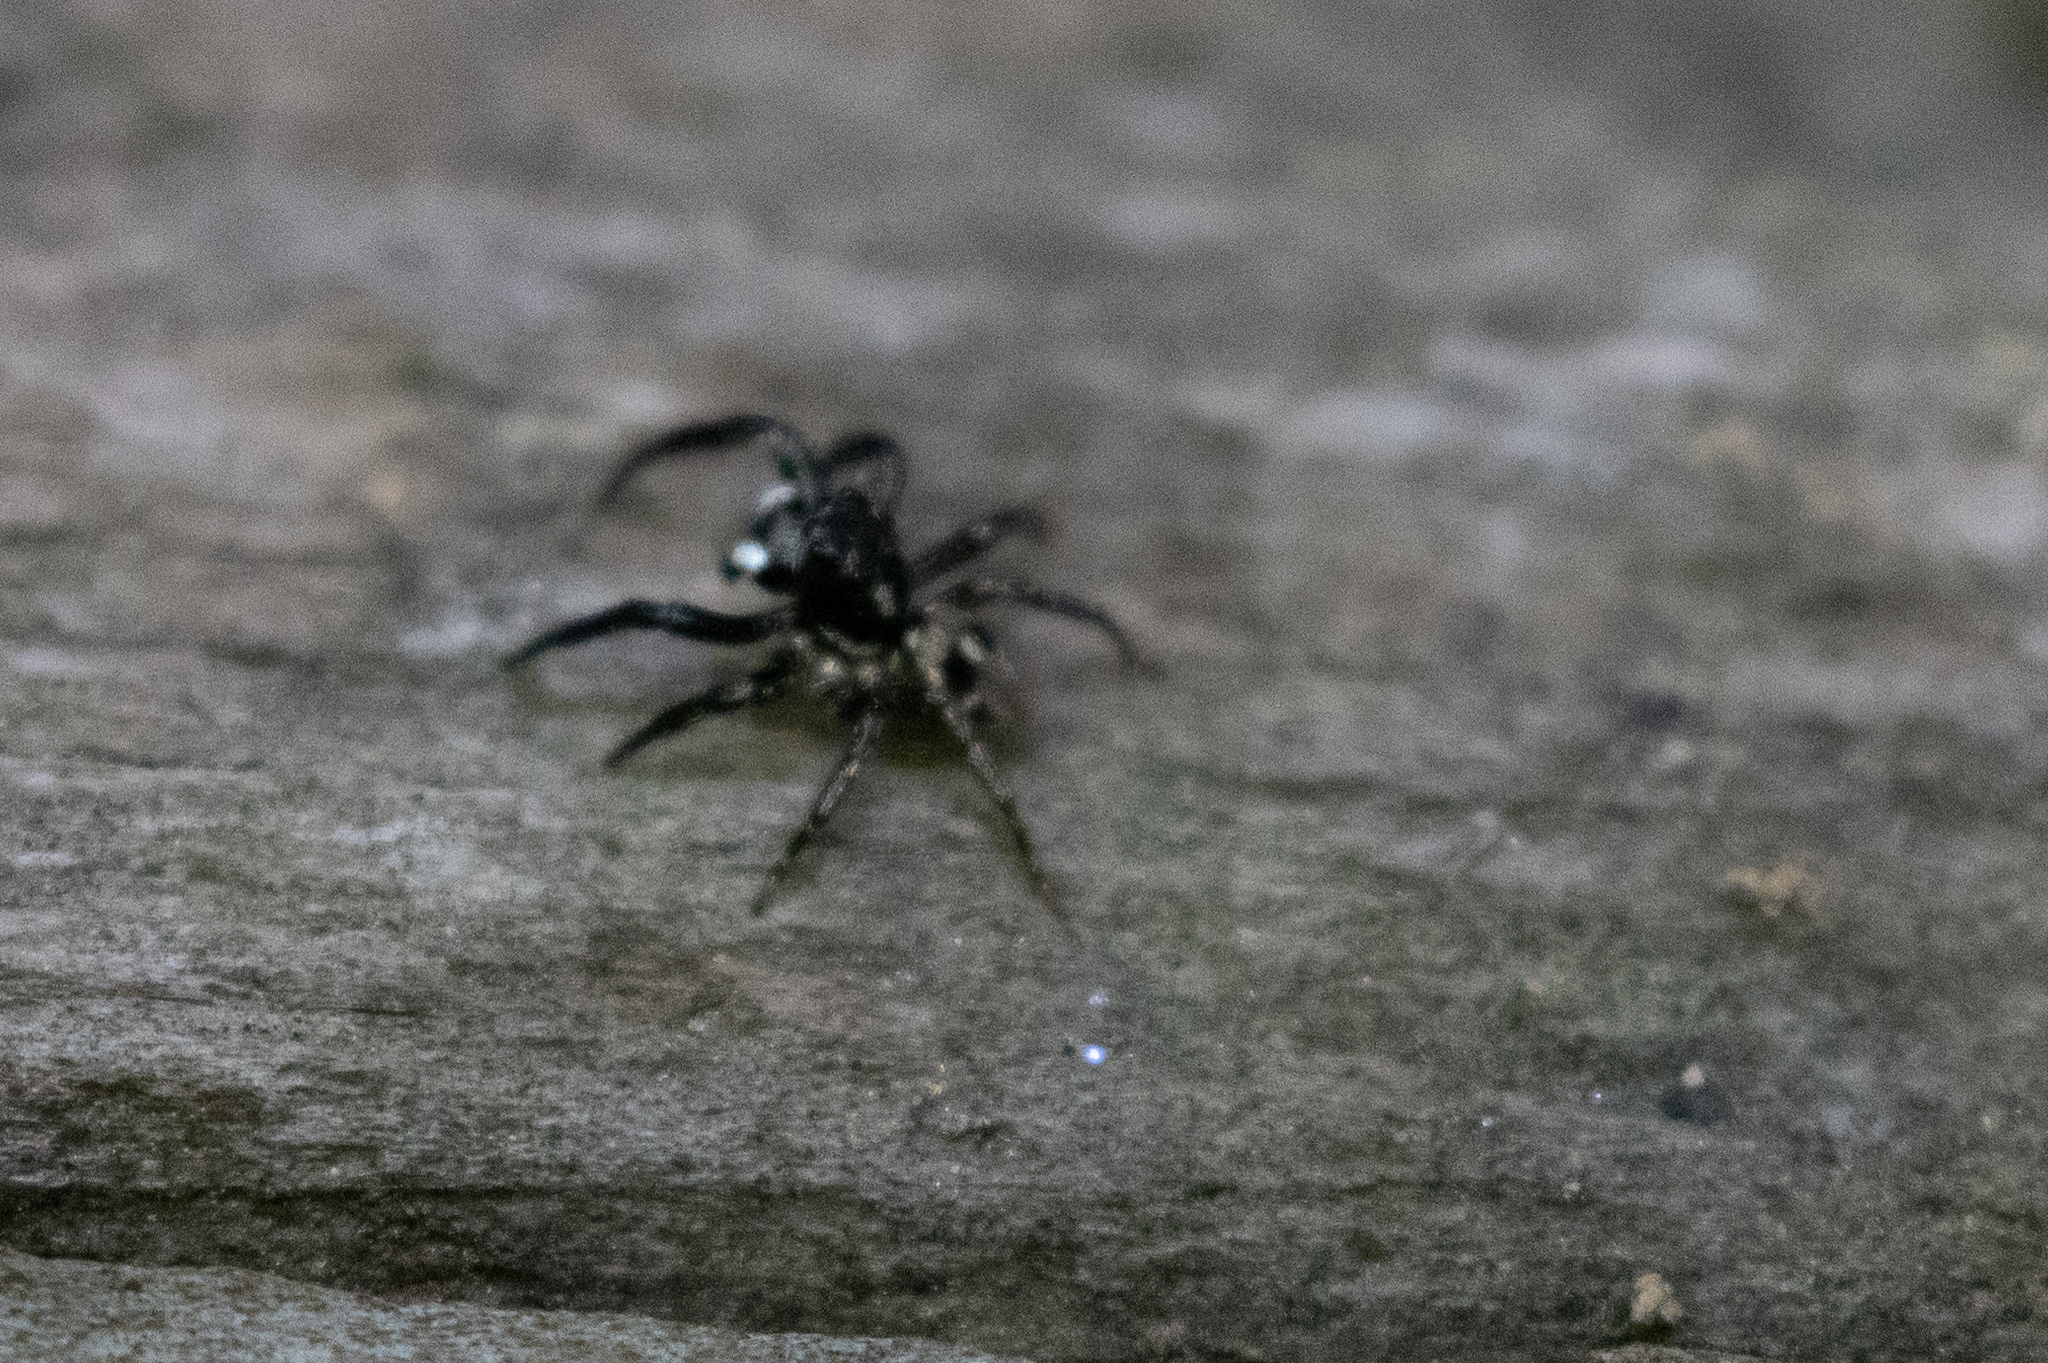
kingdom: Animalia
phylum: Arthropoda
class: Arachnida
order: Araneae
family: Salticidae
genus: Anasaitis
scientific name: Anasaitis canosa
